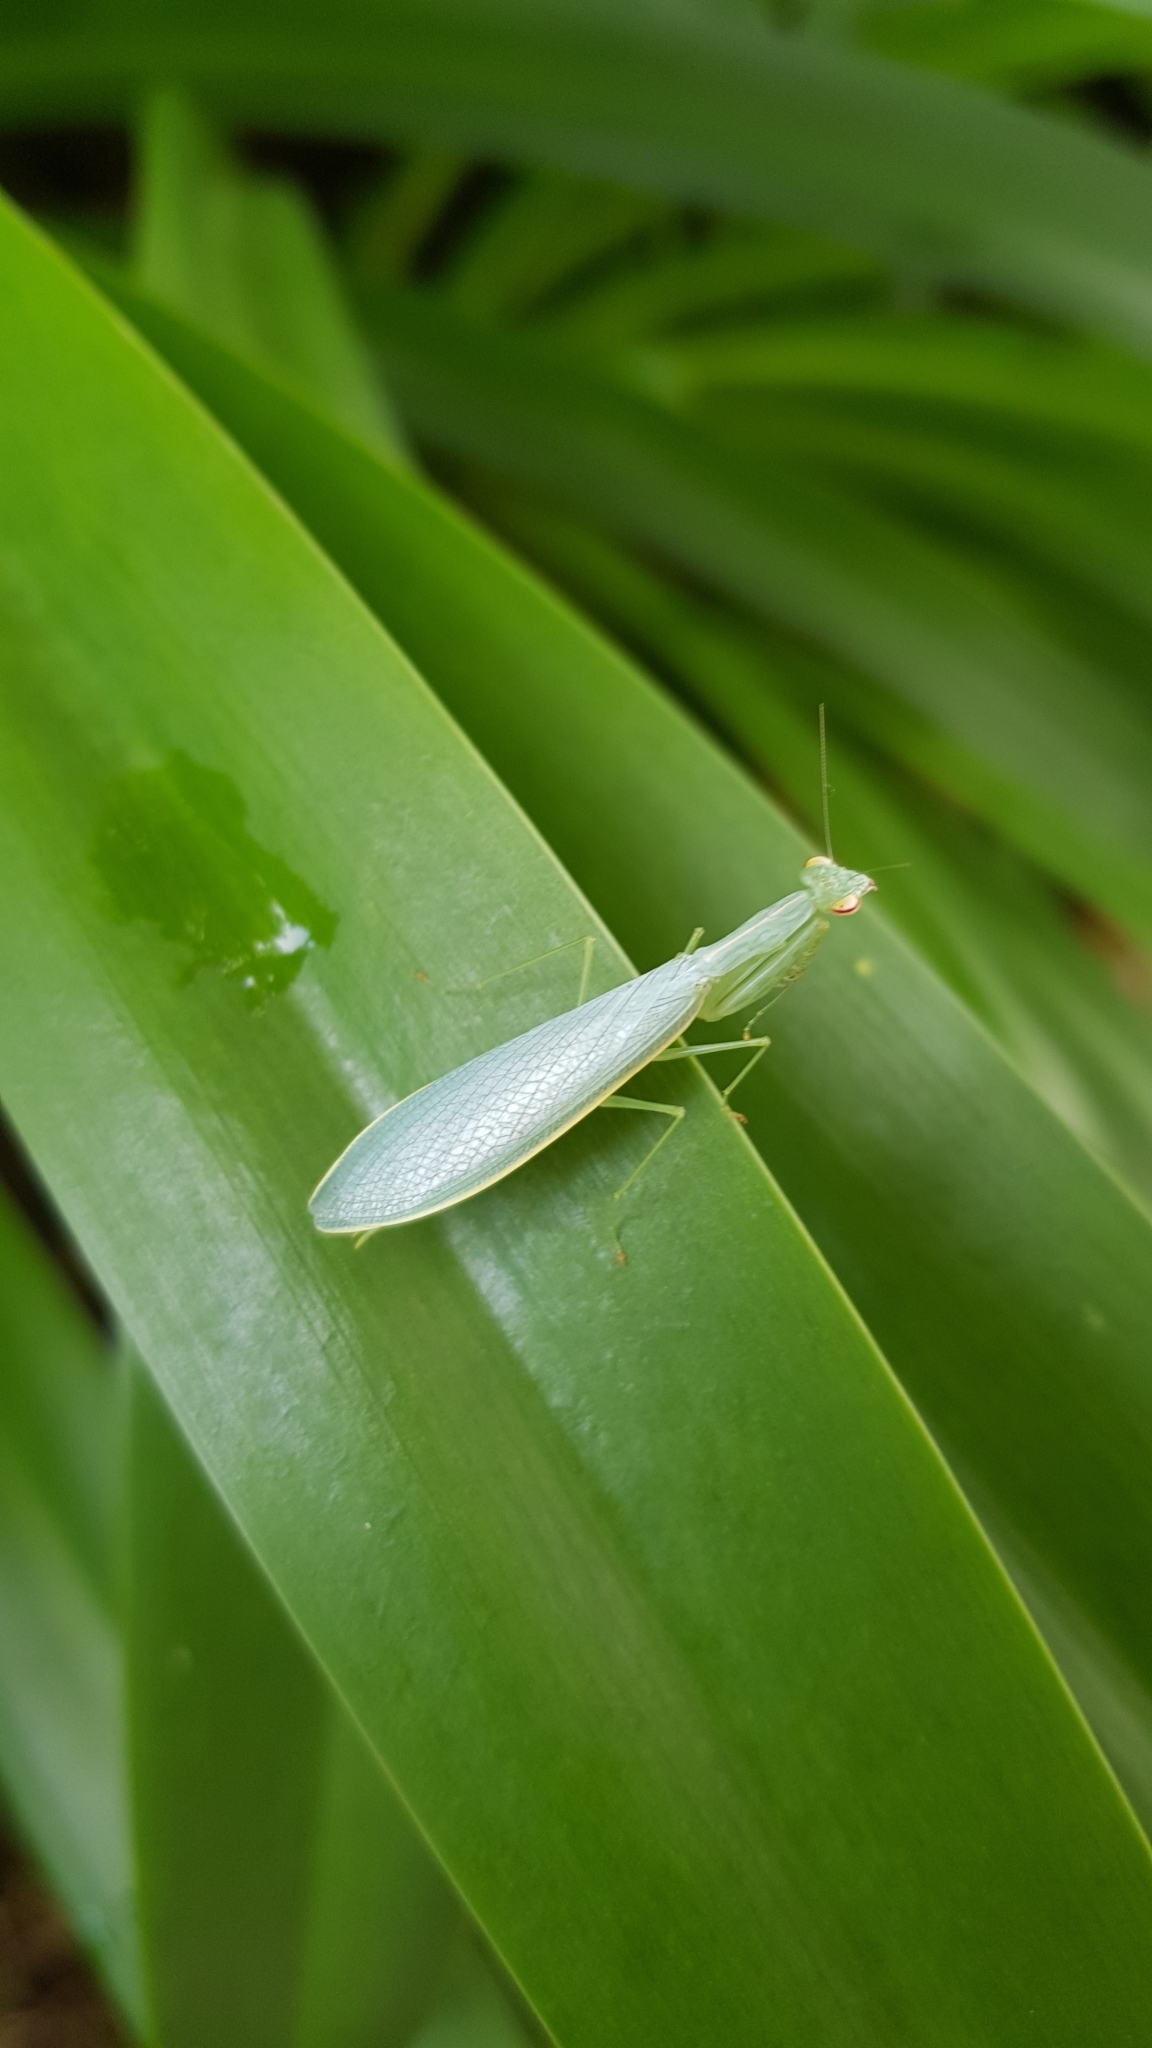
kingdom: Animalia
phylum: Arthropoda
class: Insecta
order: Mantodea
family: Nanomantidae
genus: Kongobatha
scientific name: Kongobatha diademata
